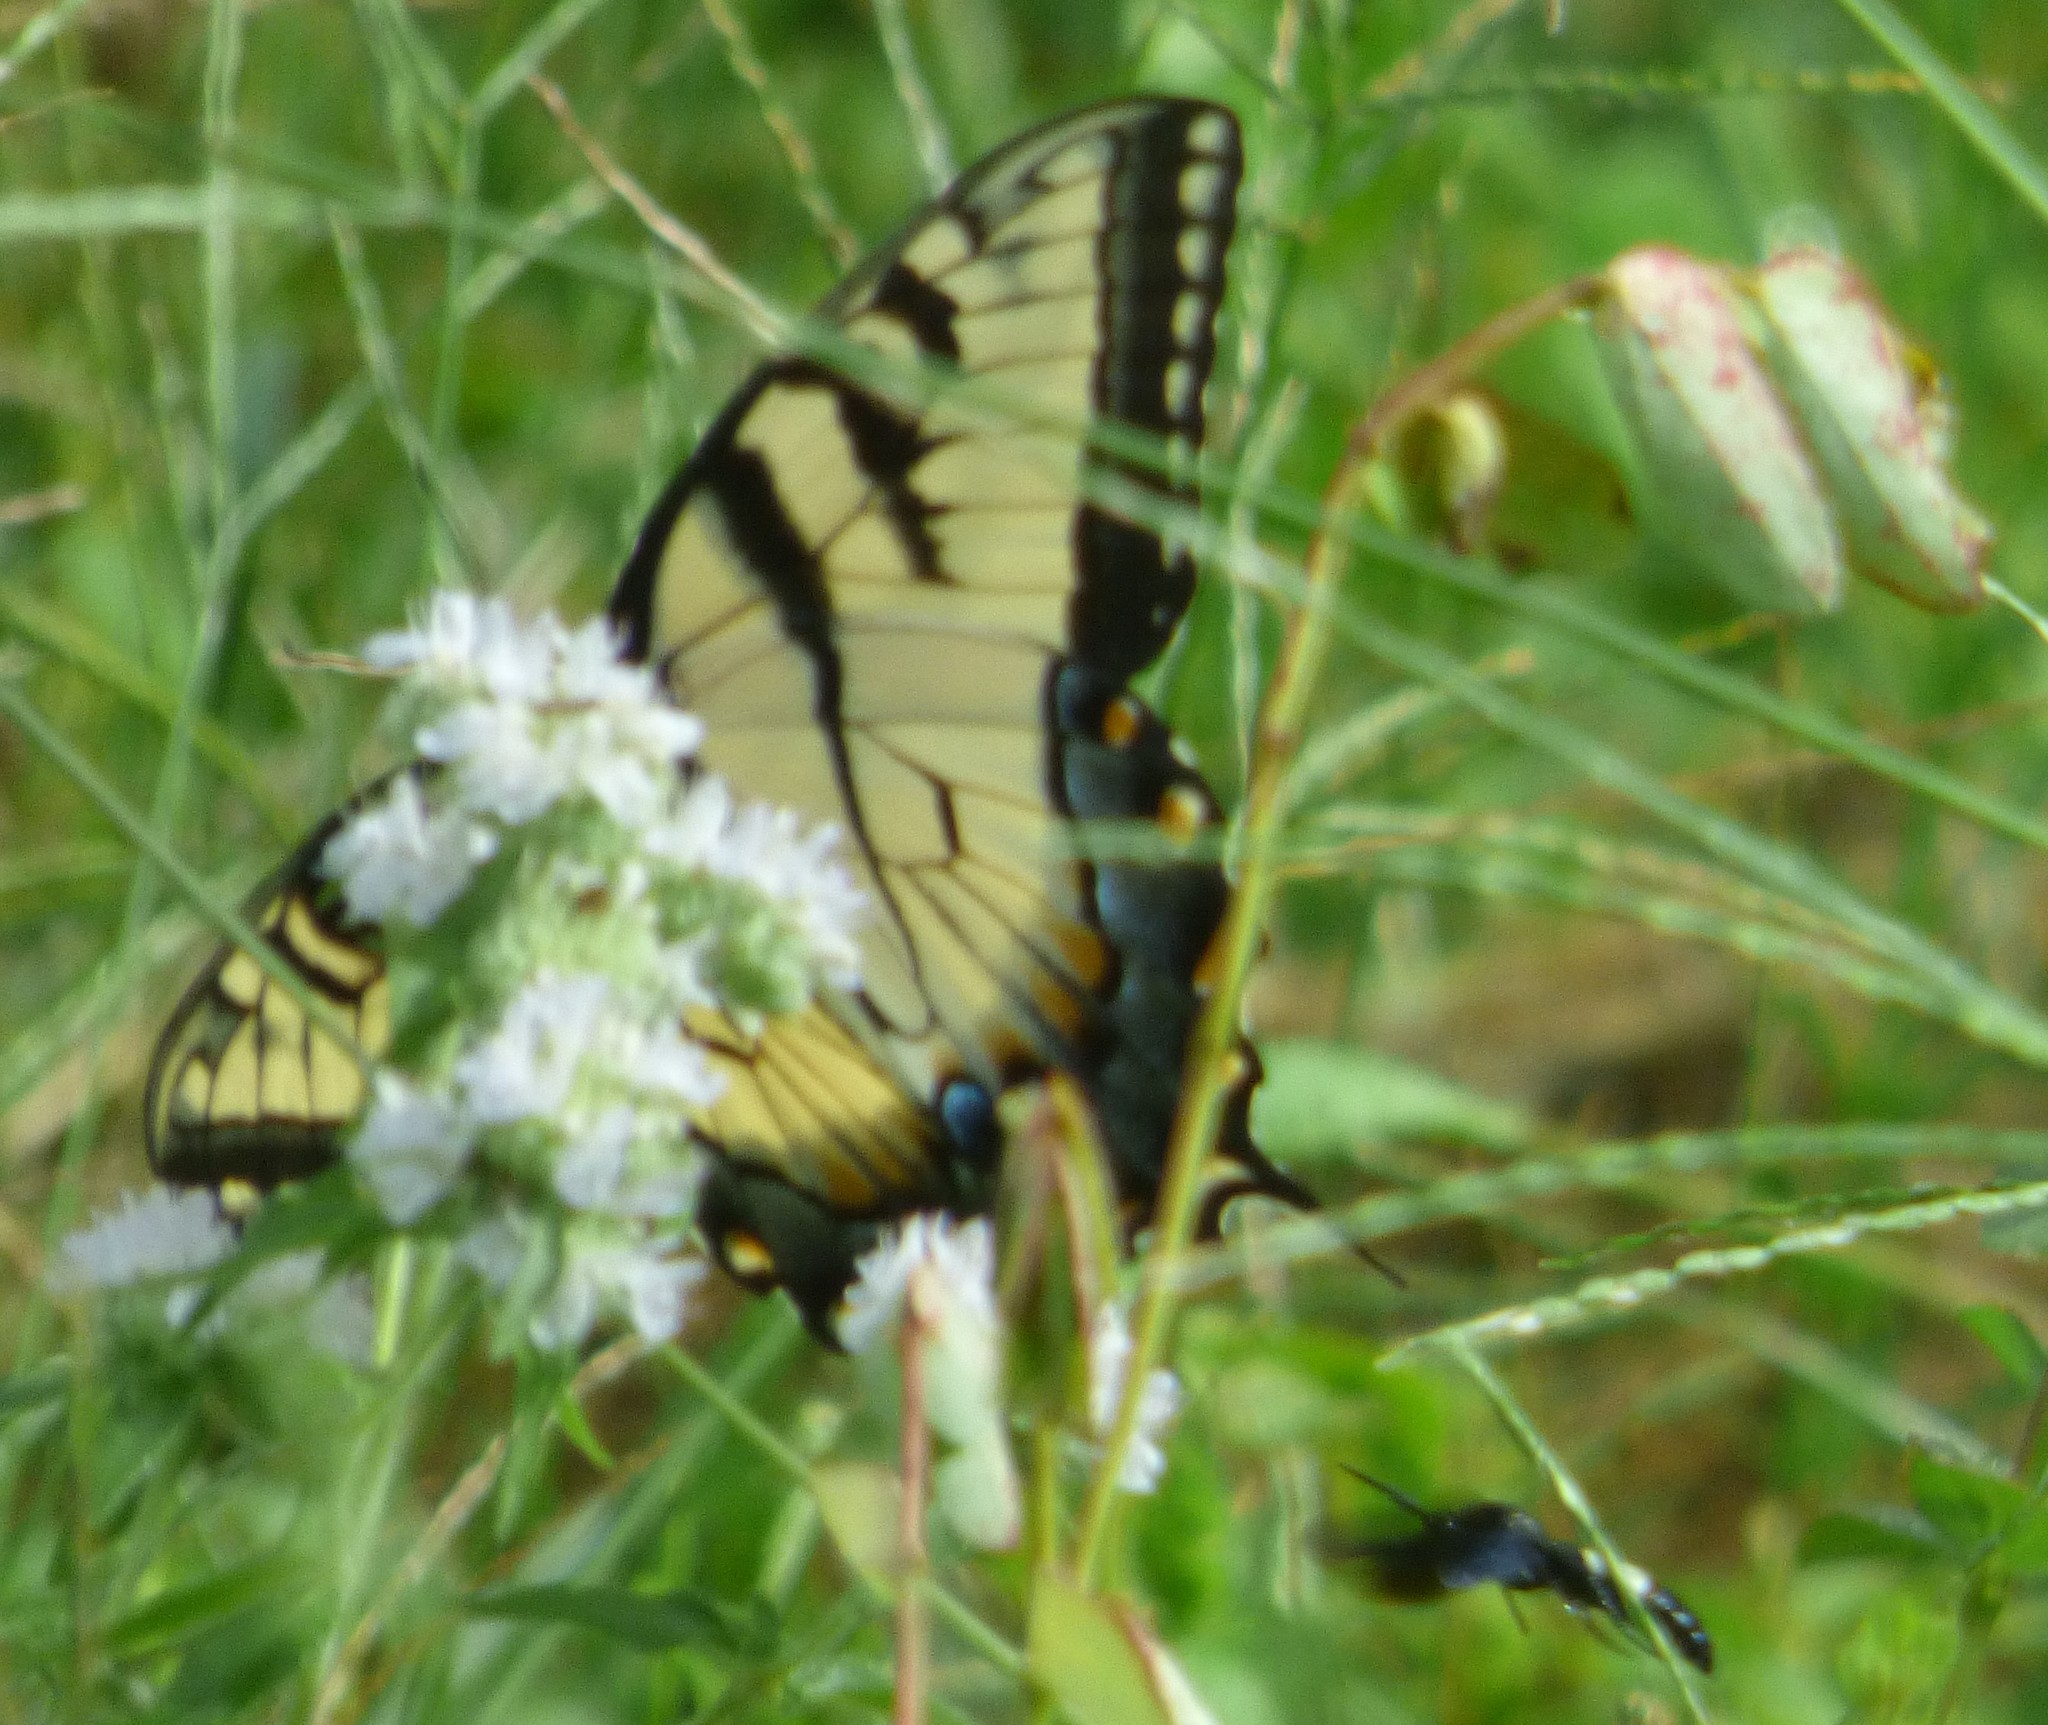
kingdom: Animalia
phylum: Arthropoda
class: Insecta
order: Lepidoptera
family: Papilionidae
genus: Papilio
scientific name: Papilio glaucus
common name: Tiger swallowtail
